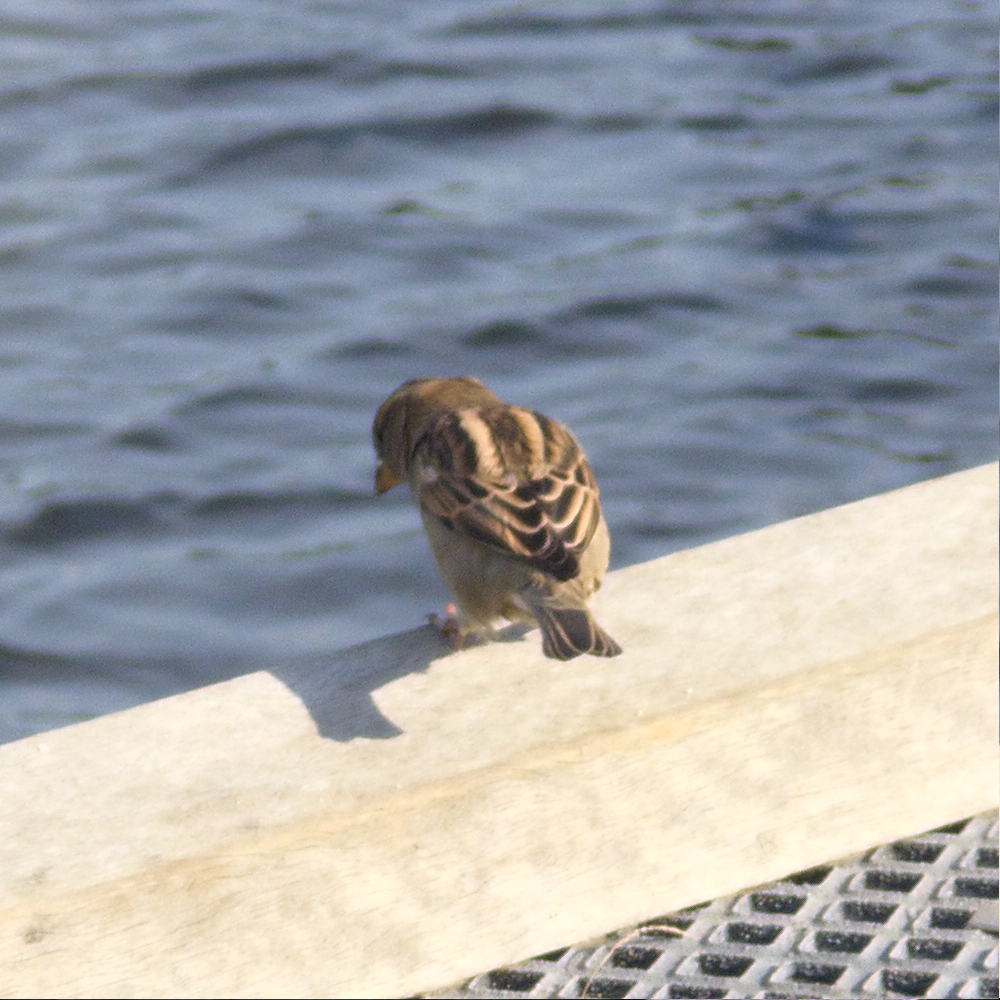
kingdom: Animalia
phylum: Chordata
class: Aves
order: Passeriformes
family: Passeridae
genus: Passer
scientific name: Passer domesticus
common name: House sparrow
